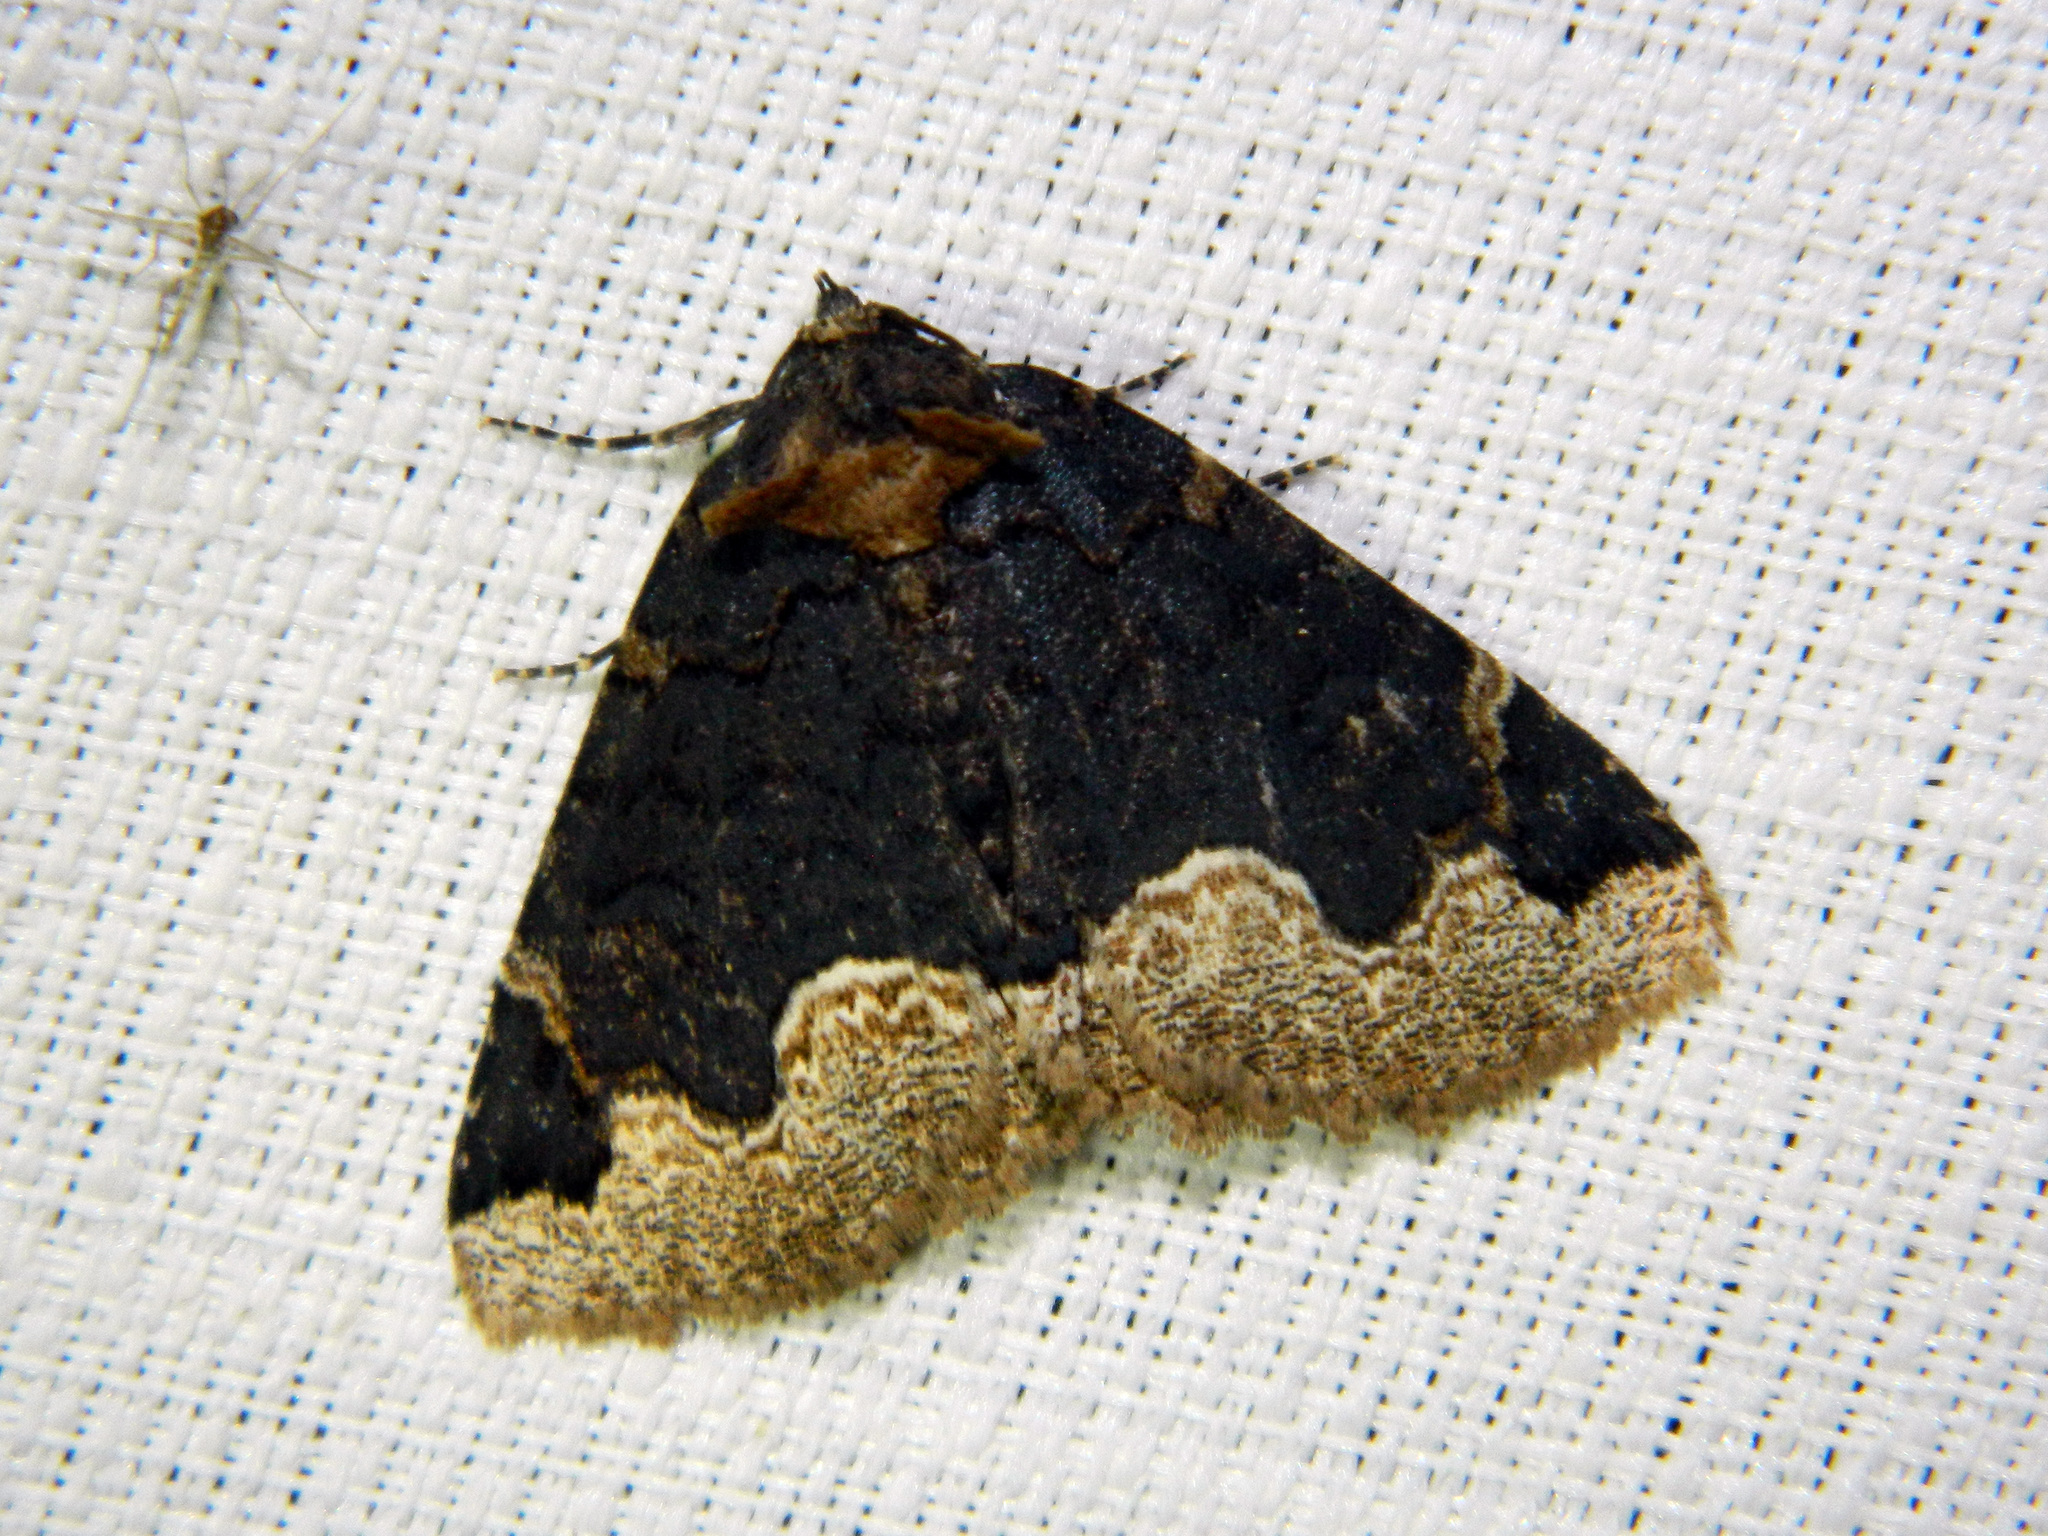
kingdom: Animalia
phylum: Arthropoda
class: Insecta
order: Lepidoptera
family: Erebidae
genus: Zale
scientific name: Zale horrida
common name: Horrid zale moth
